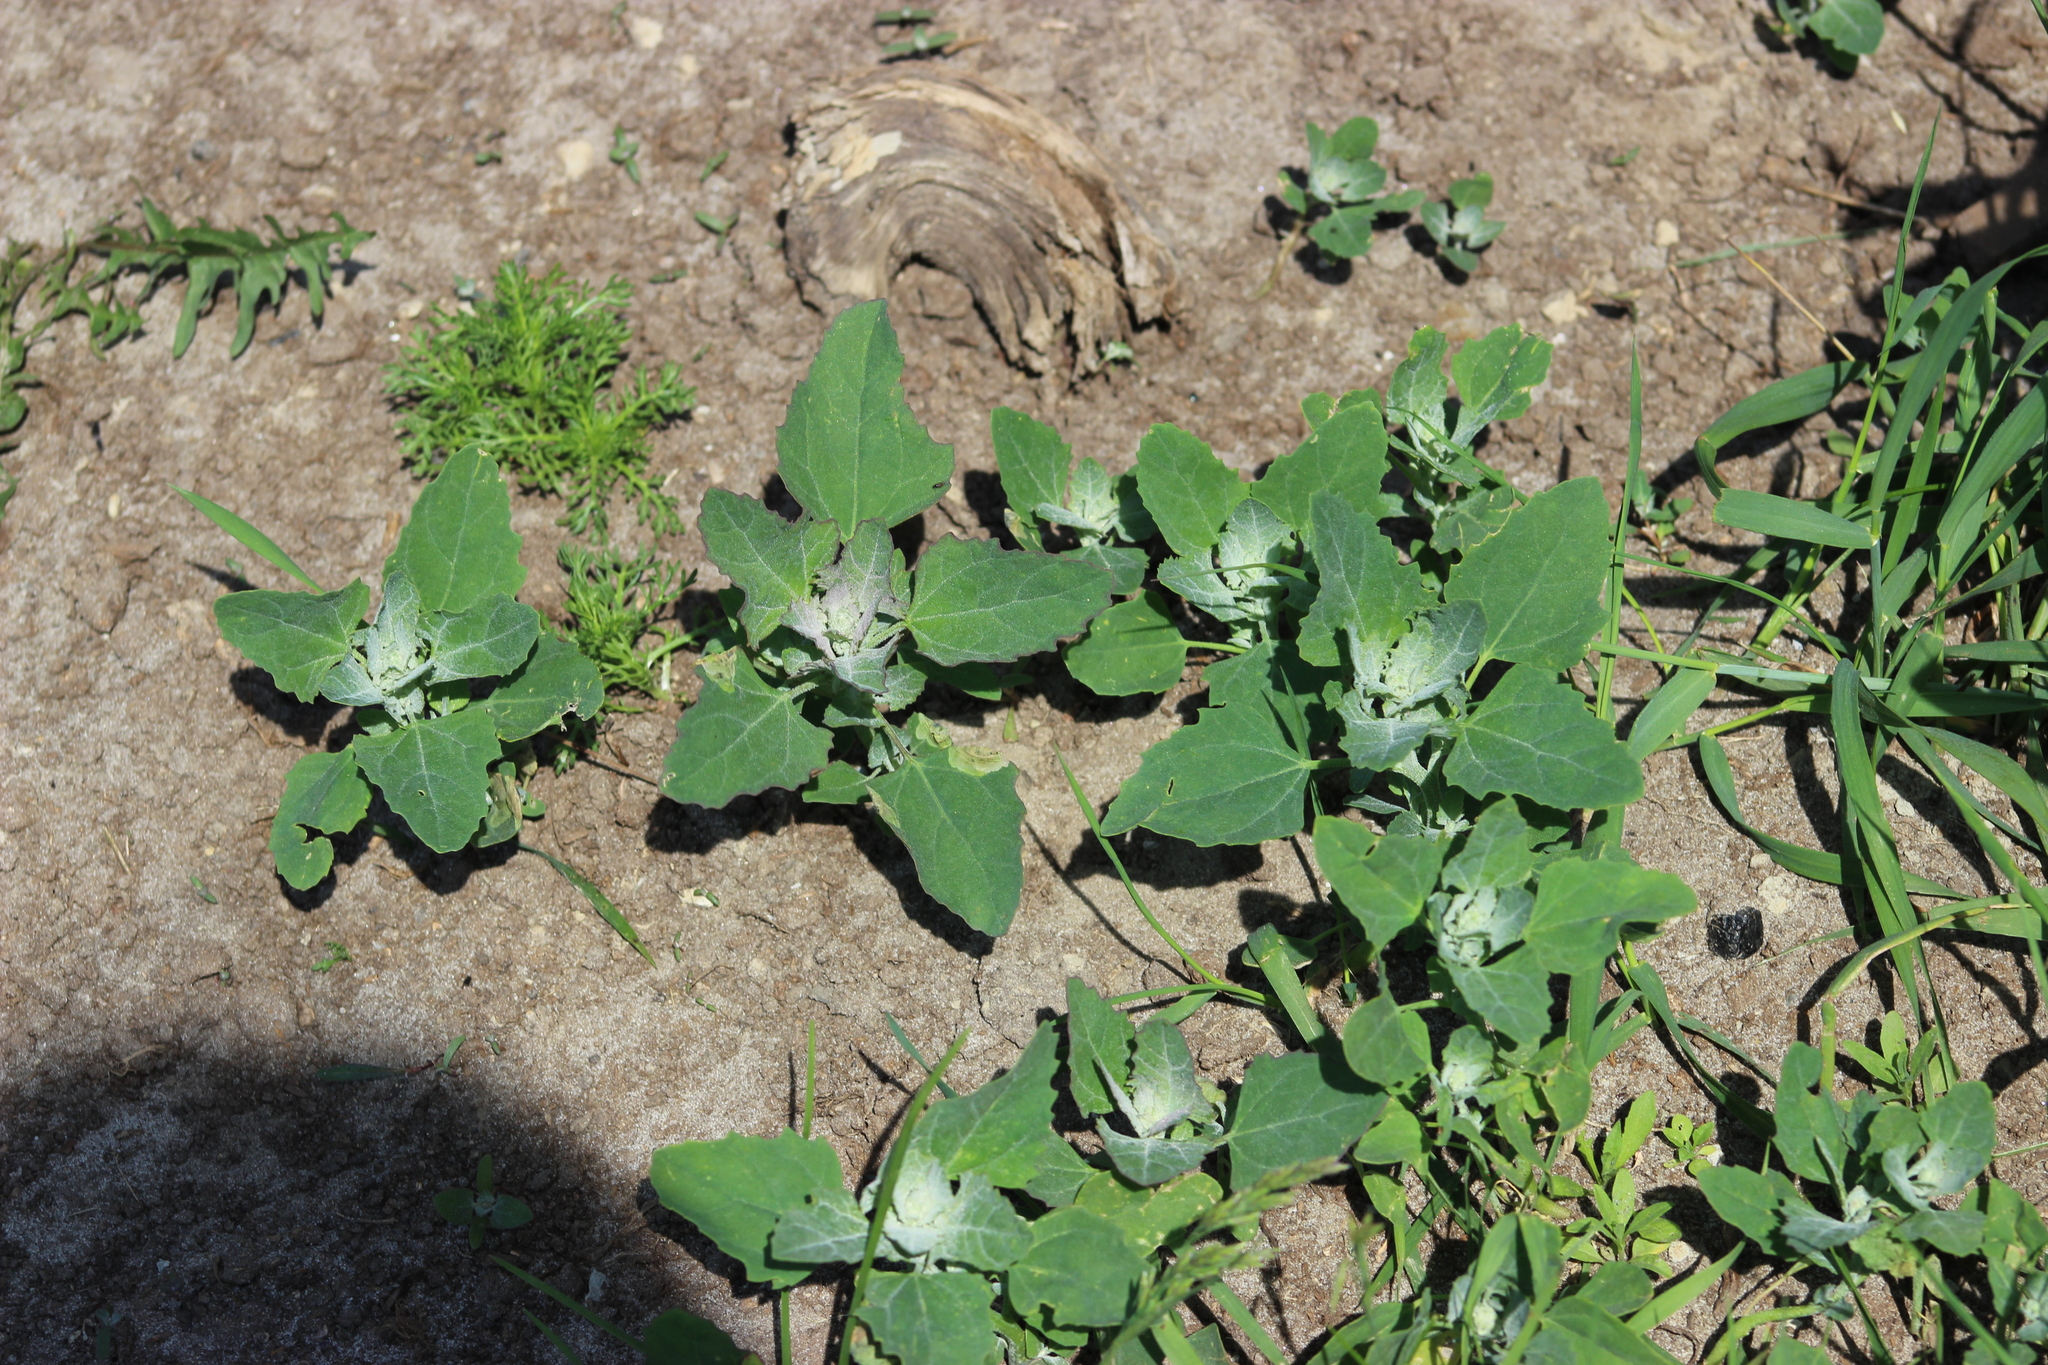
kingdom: Plantae
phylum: Tracheophyta
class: Magnoliopsida
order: Caryophyllales
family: Amaranthaceae
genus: Chenopodium
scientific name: Chenopodium album
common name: Fat-hen
